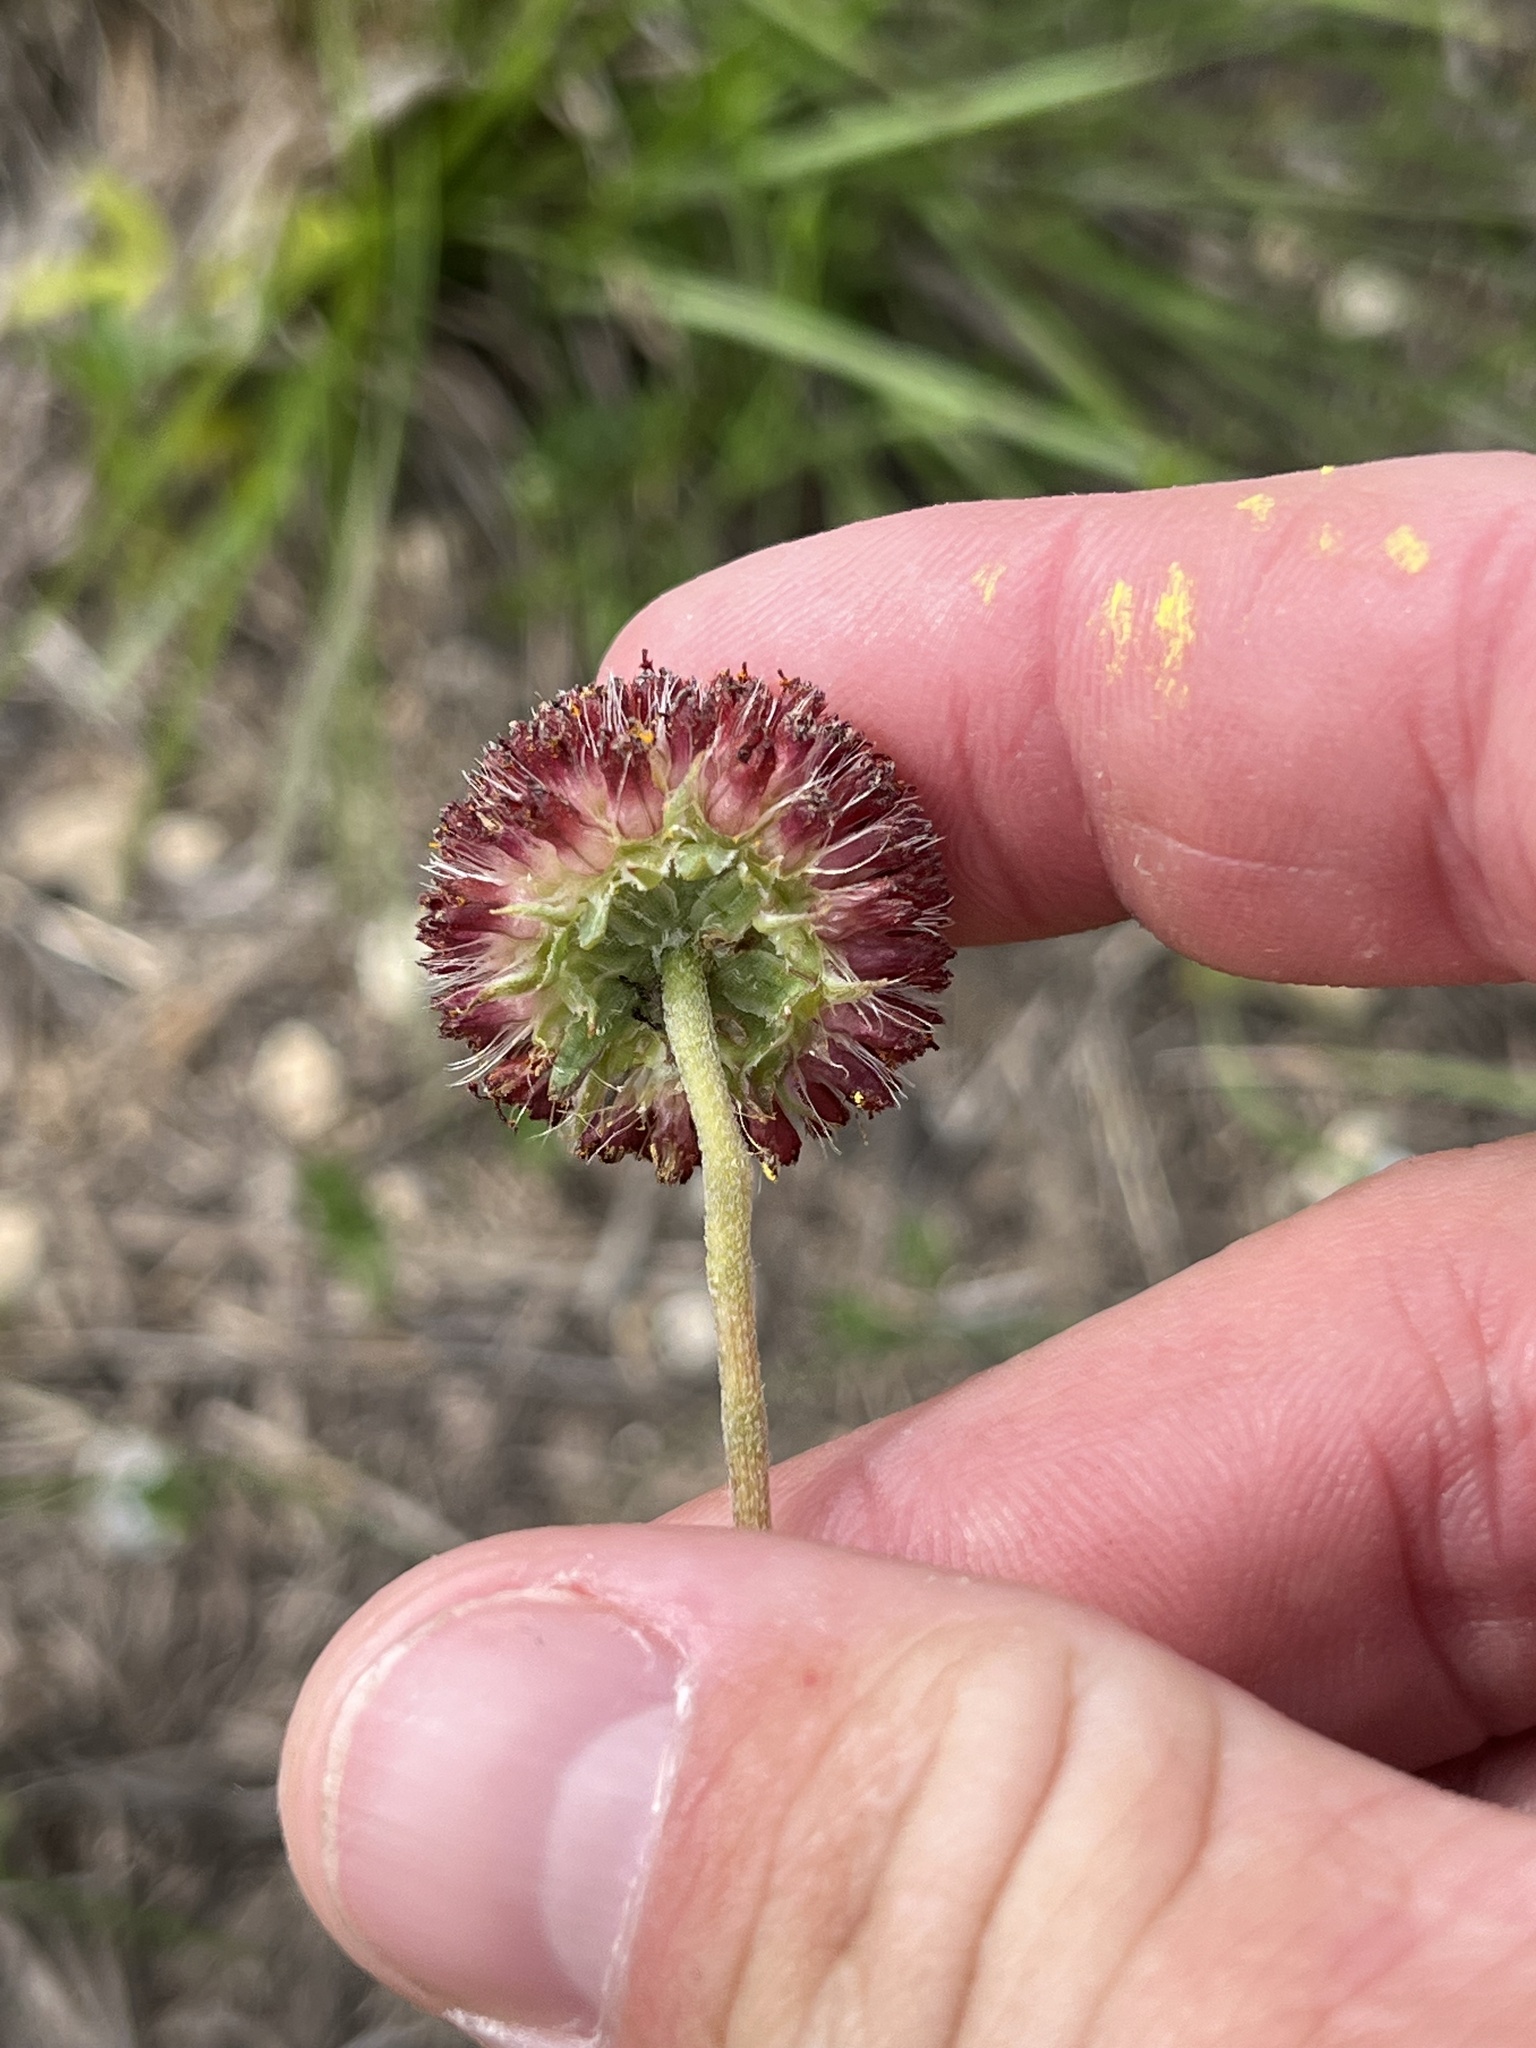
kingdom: Plantae
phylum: Tracheophyta
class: Magnoliopsida
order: Asterales
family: Asteraceae
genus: Gaillardia
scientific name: Gaillardia suavis
